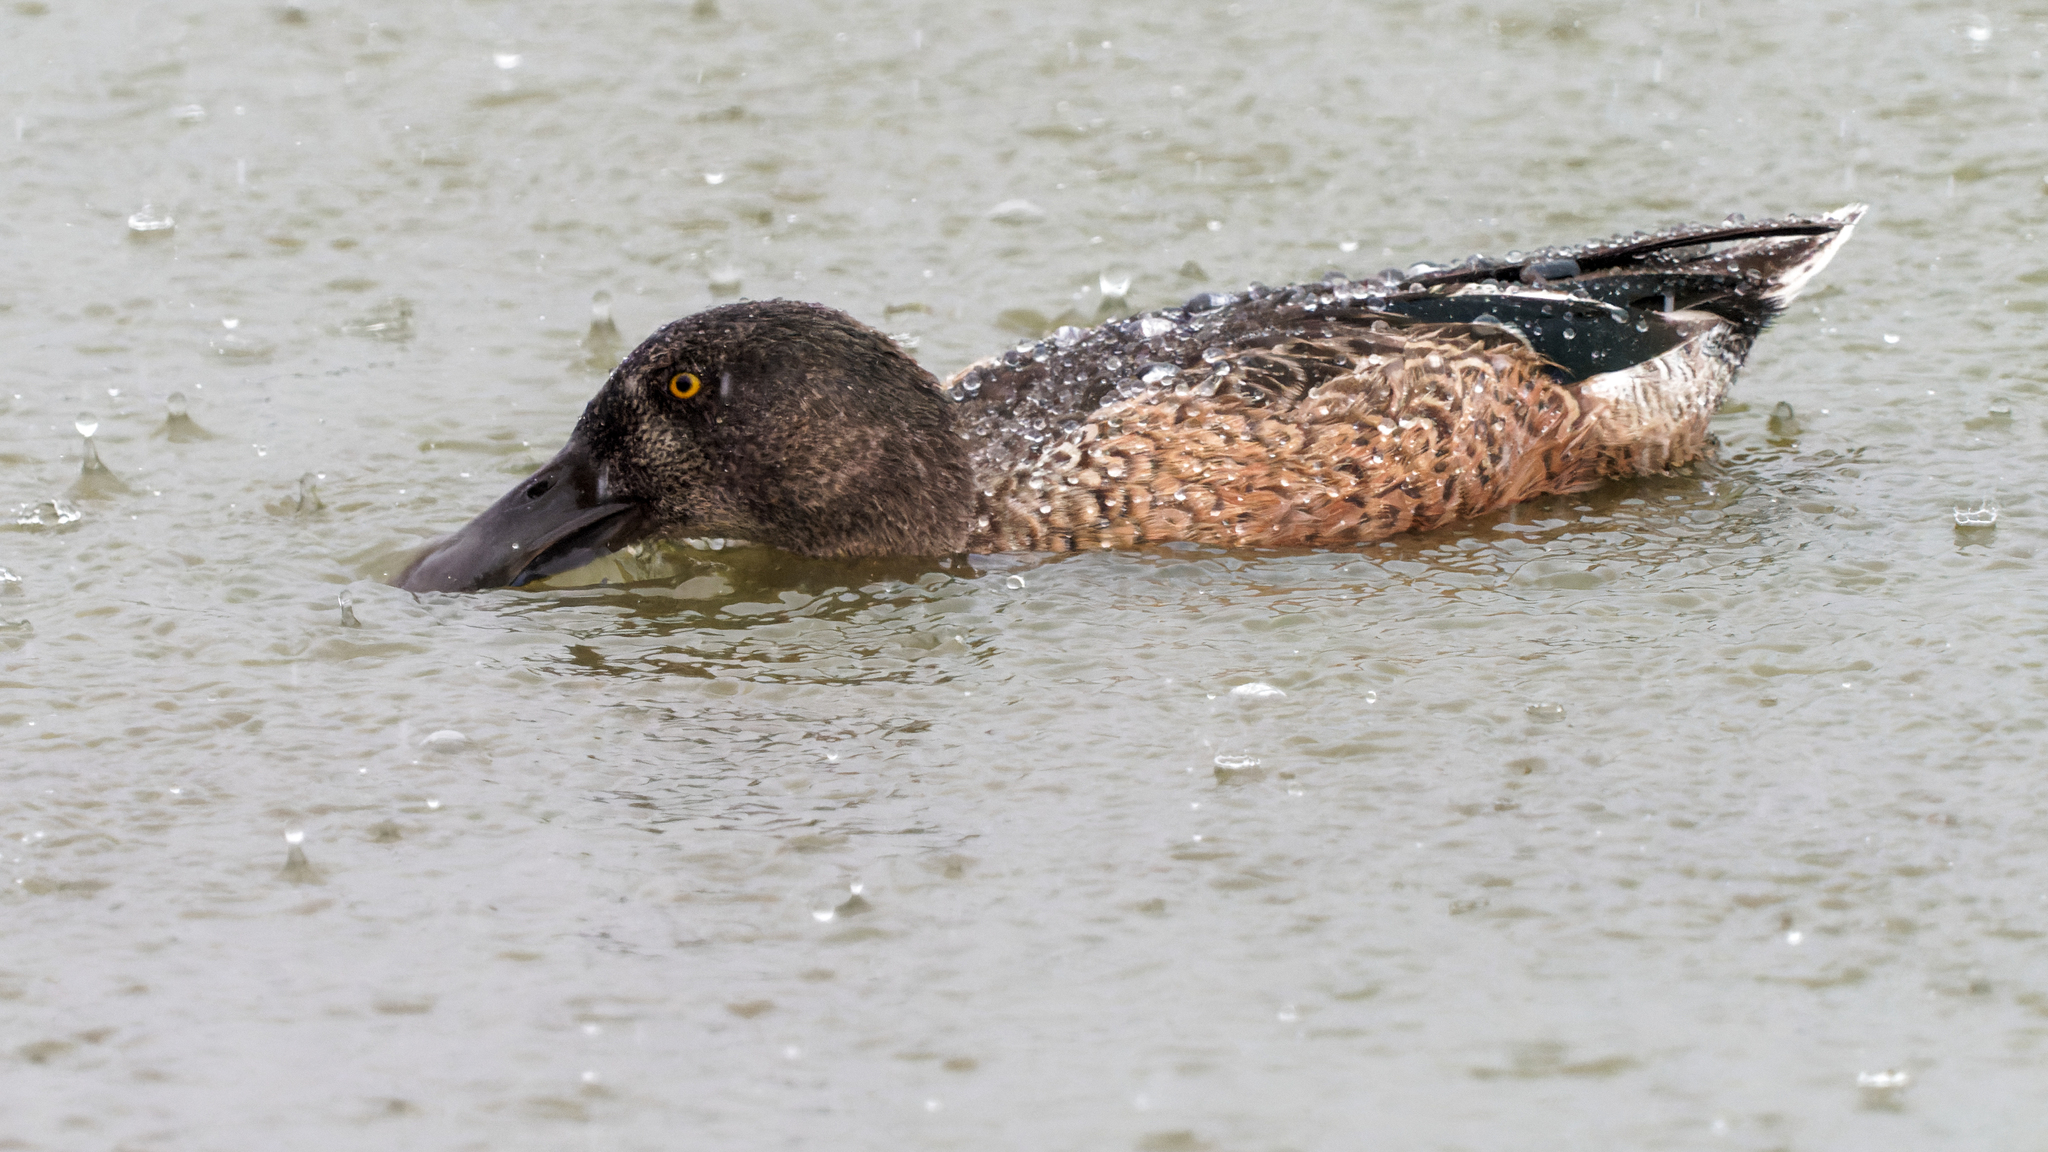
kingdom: Animalia
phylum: Chordata
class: Aves
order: Anseriformes
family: Anatidae
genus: Spatula
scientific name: Spatula clypeata
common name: Northern shoveler
